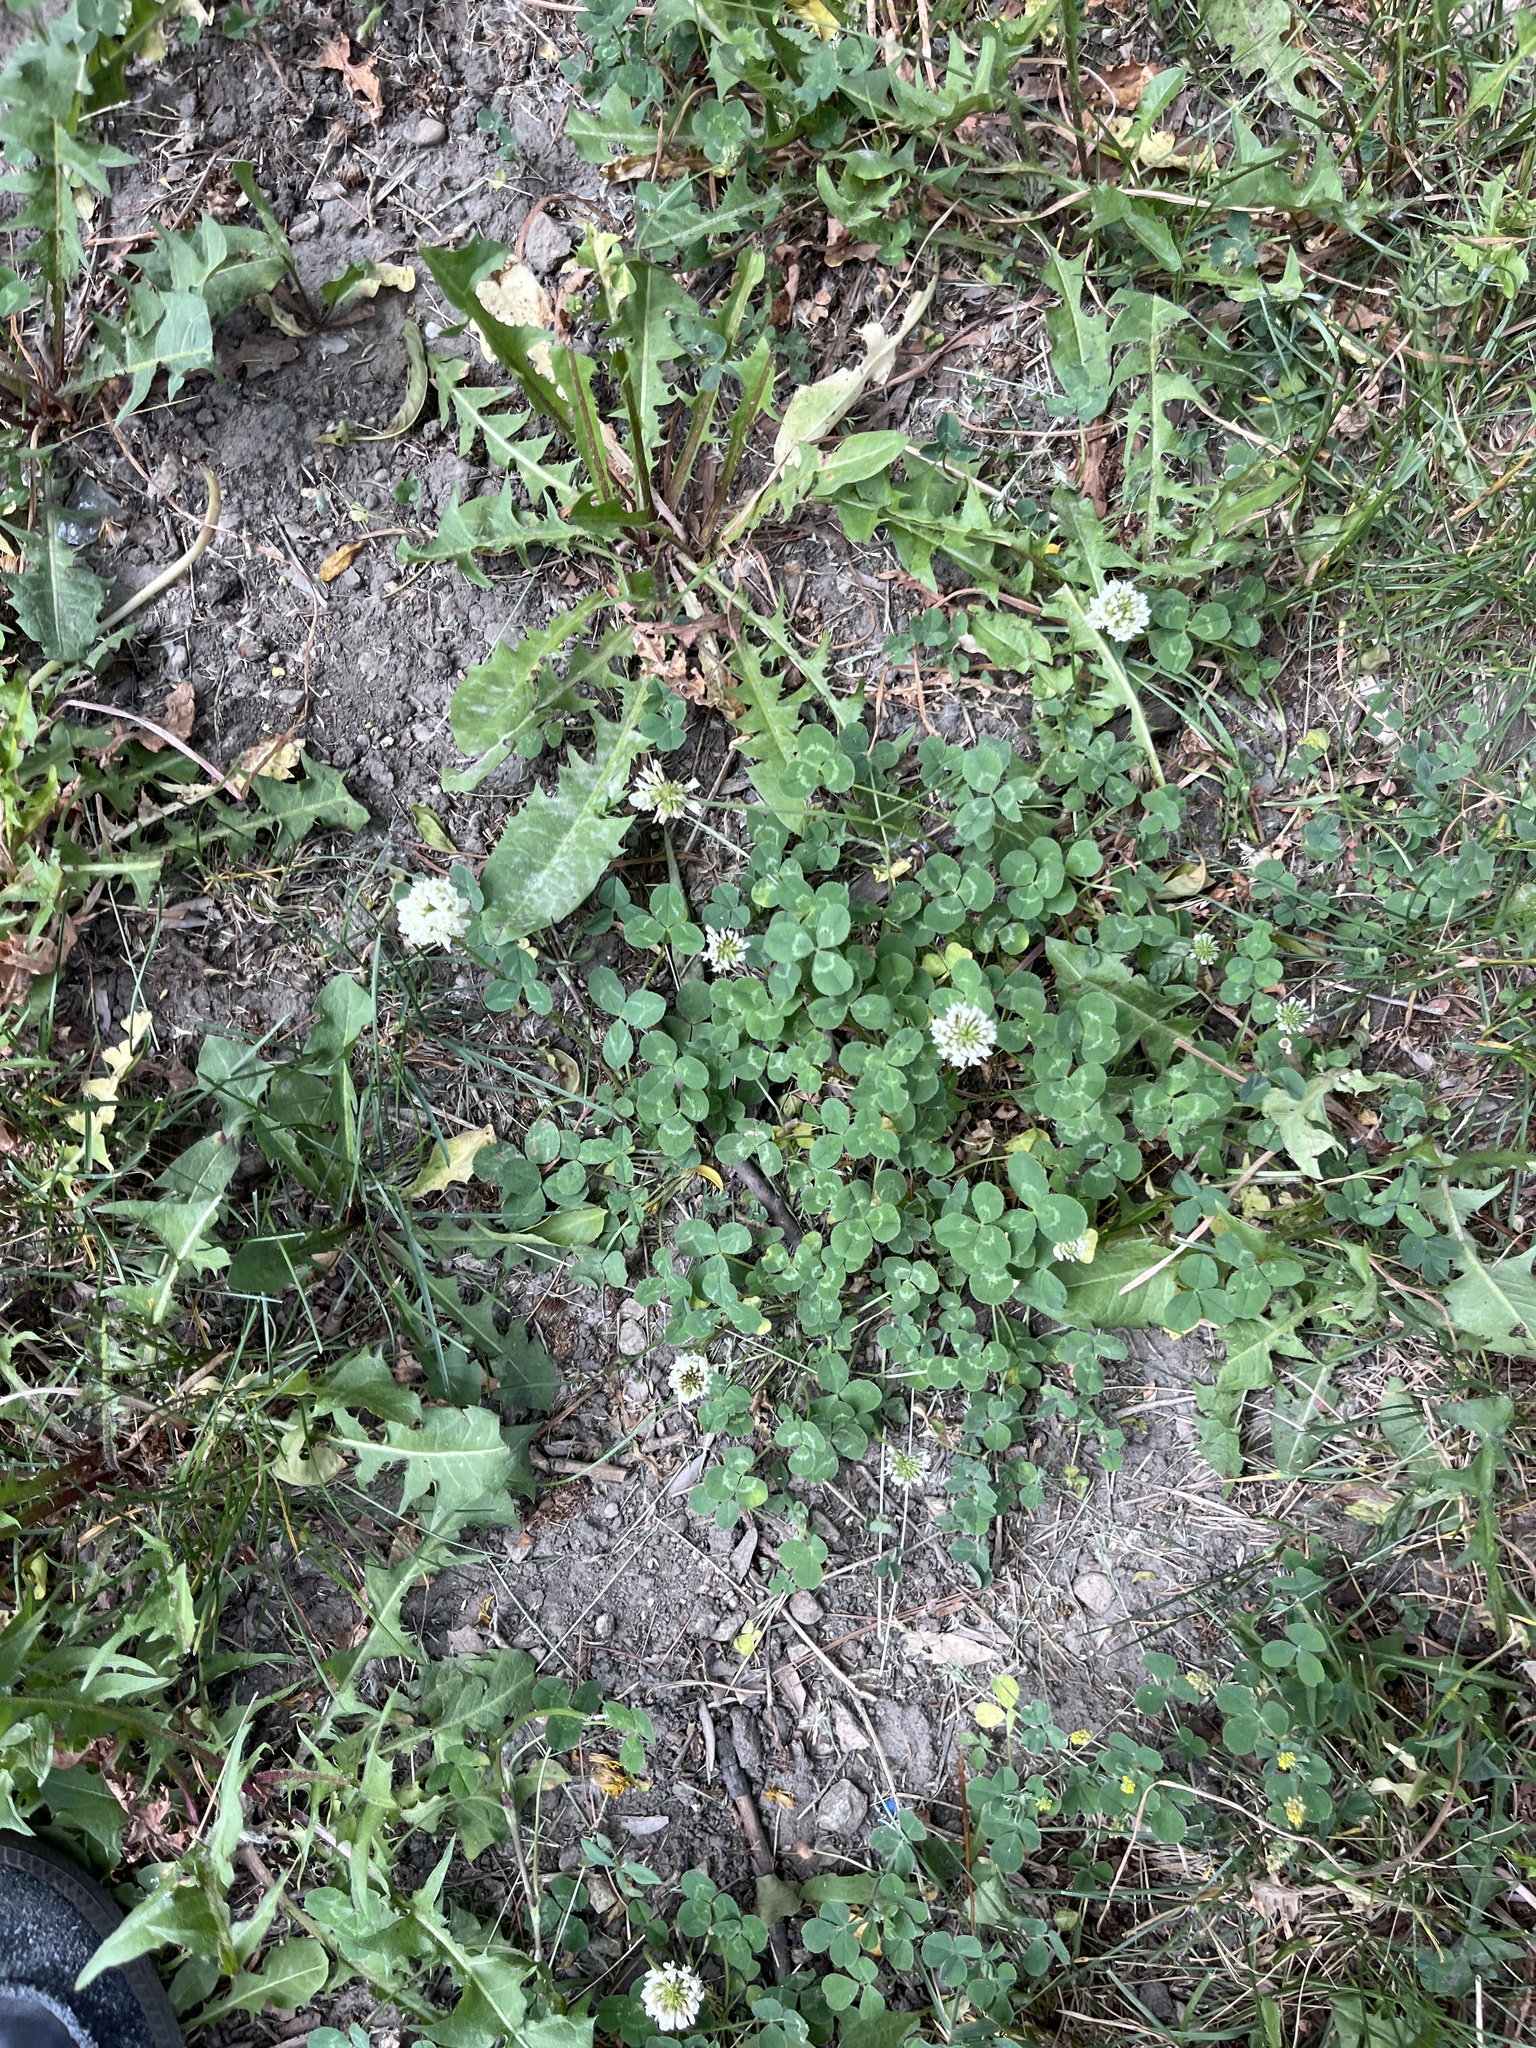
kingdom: Plantae
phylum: Tracheophyta
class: Magnoliopsida
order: Fabales
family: Fabaceae
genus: Trifolium
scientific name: Trifolium repens
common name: White clover
